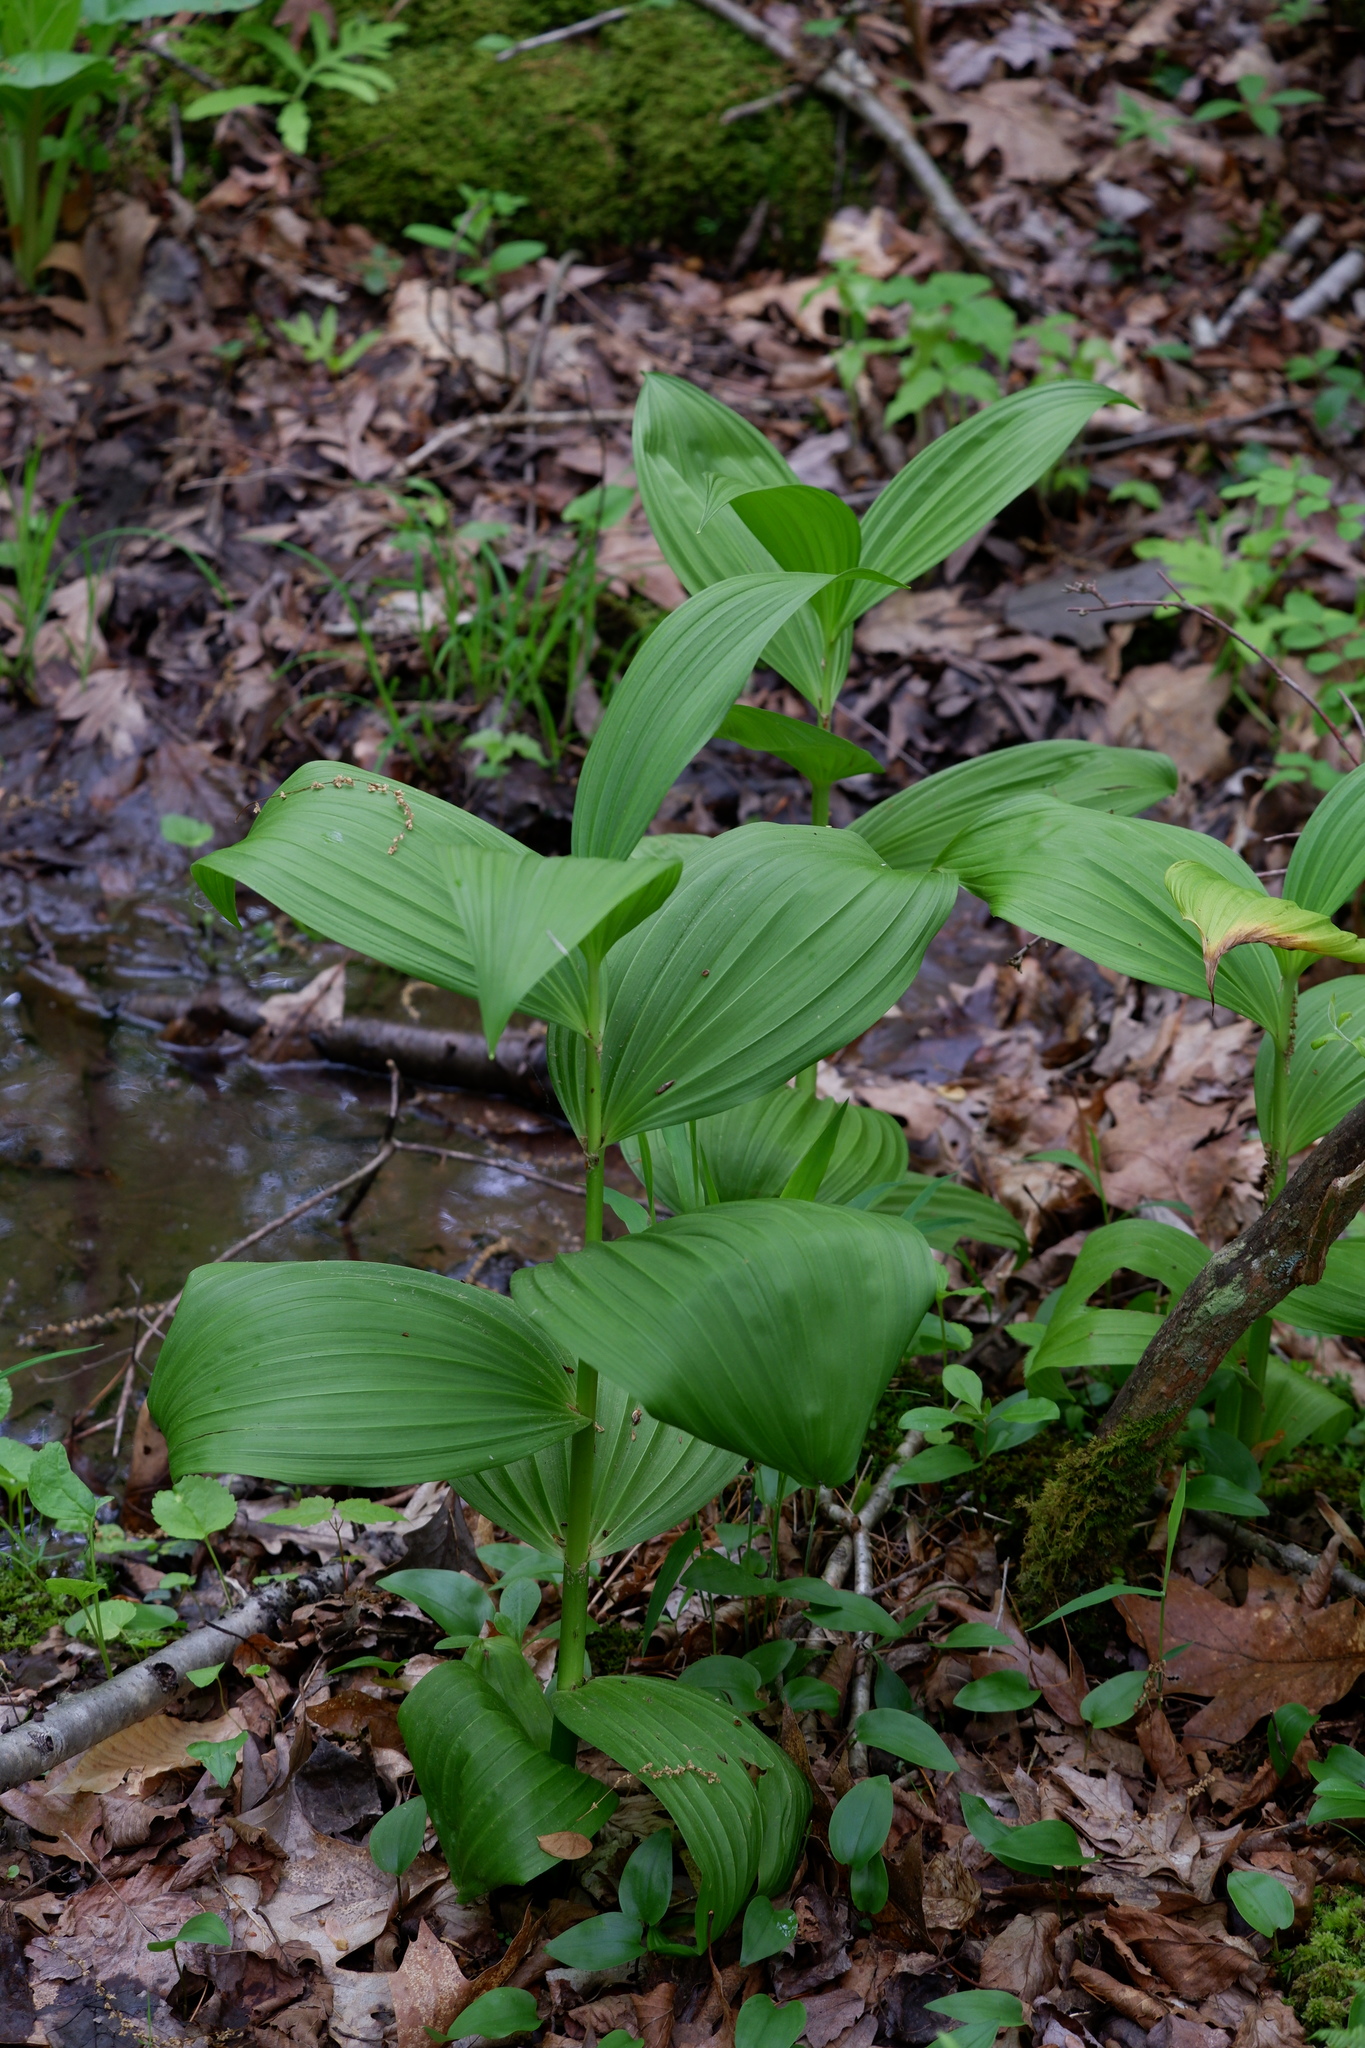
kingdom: Plantae
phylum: Tracheophyta
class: Liliopsida
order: Liliales
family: Melanthiaceae
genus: Veratrum
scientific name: Veratrum viride
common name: American false hellebore
